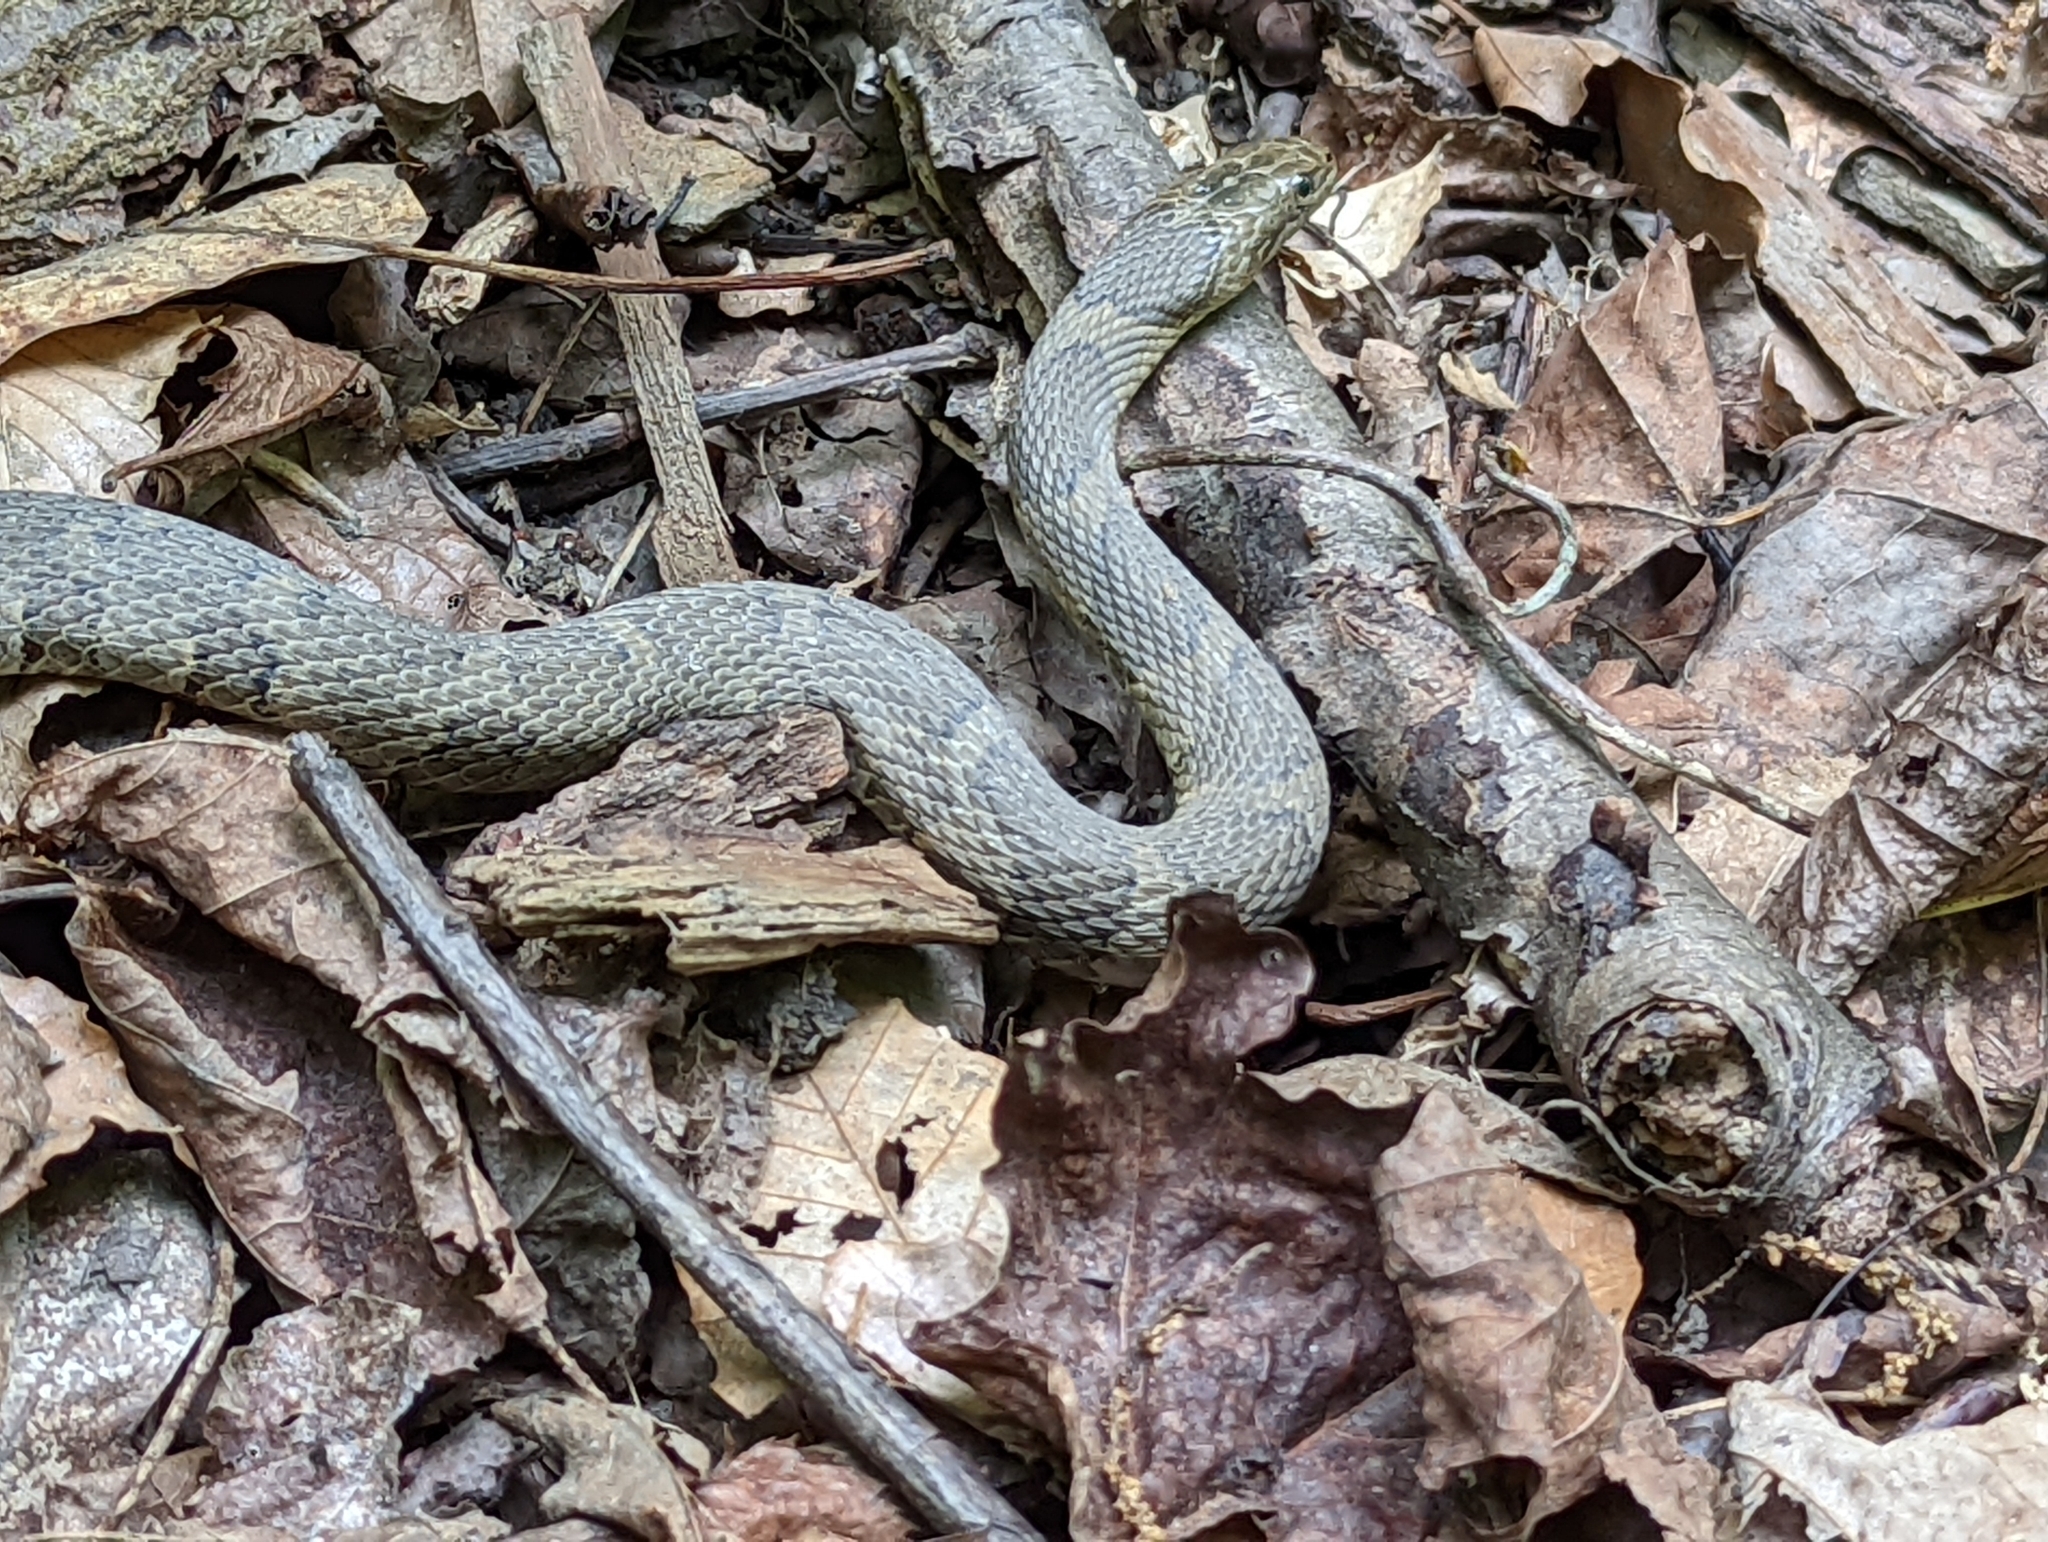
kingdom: Animalia
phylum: Chordata
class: Squamata
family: Colubridae
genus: Nerodia
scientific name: Nerodia sipedon
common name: Northern water snake
